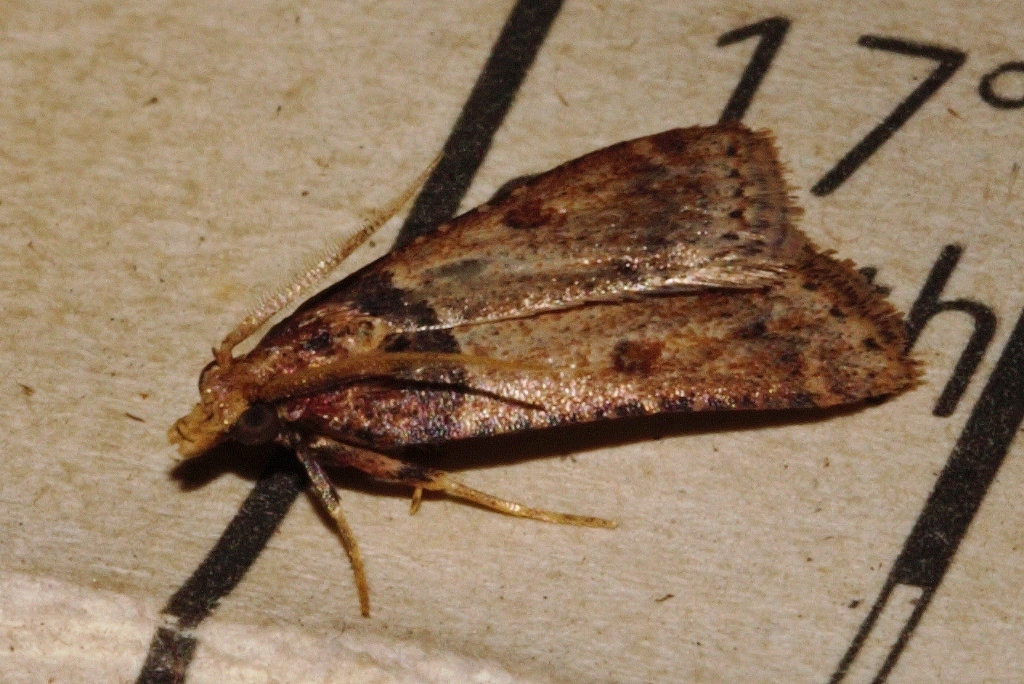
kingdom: Animalia
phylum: Arthropoda
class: Insecta
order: Lepidoptera
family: Pyralidae
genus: Philotis
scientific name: Philotis basalis
